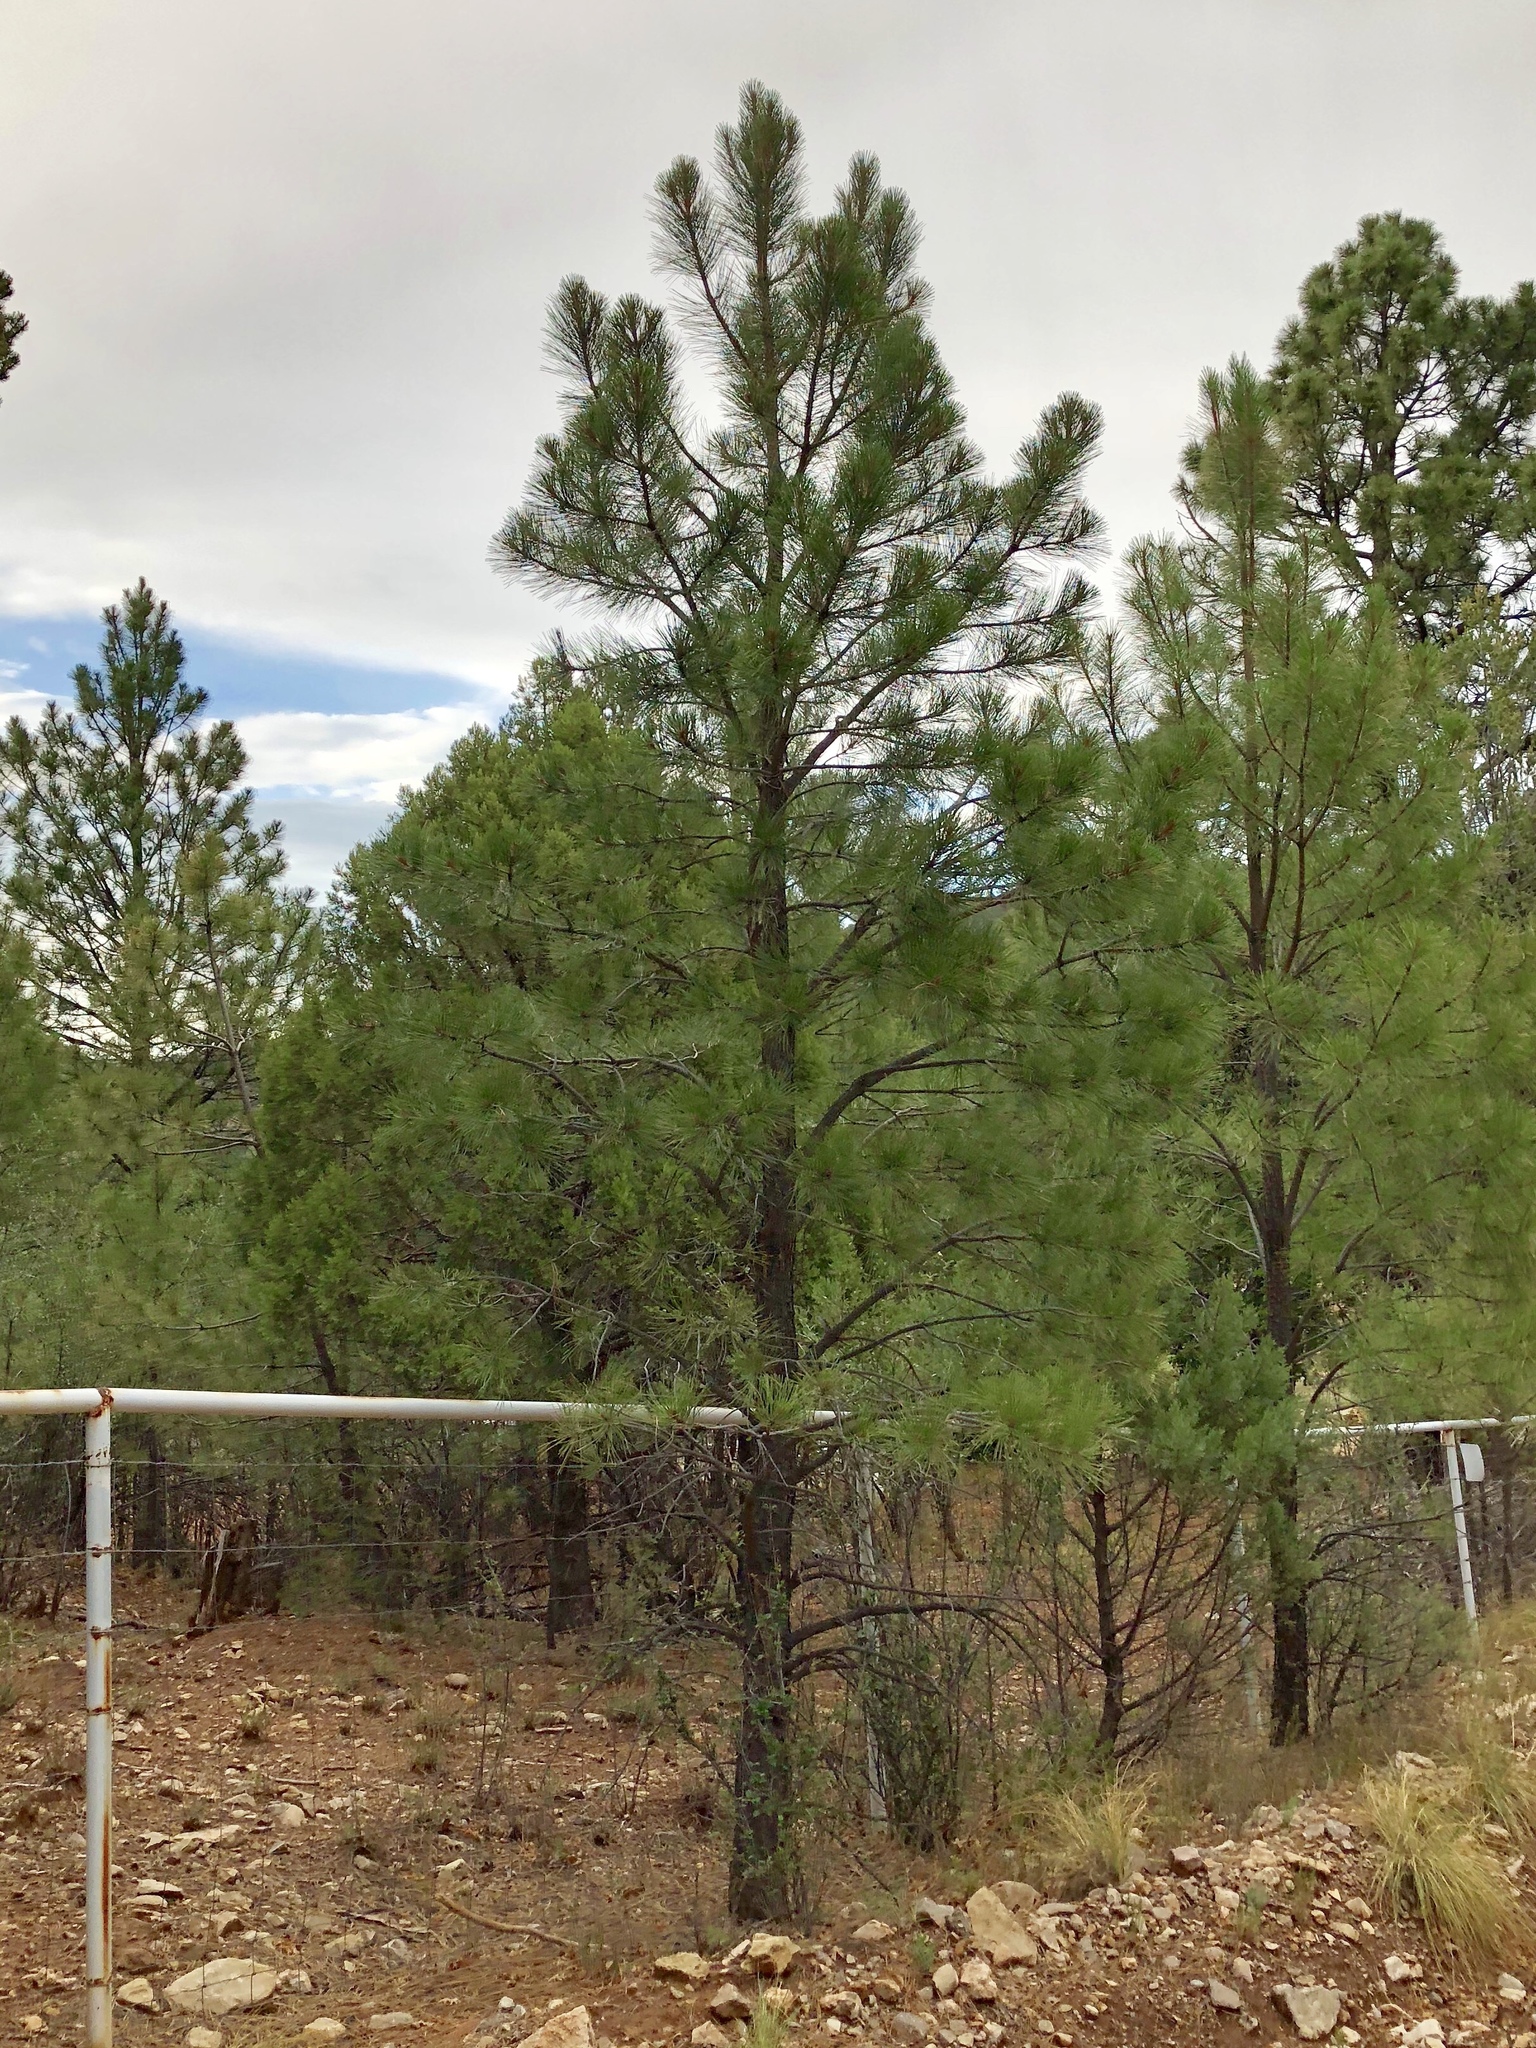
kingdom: Plantae
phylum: Tracheophyta
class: Pinopsida
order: Pinales
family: Pinaceae
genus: Pinus
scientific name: Pinus ponderosa
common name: Western yellow-pine
